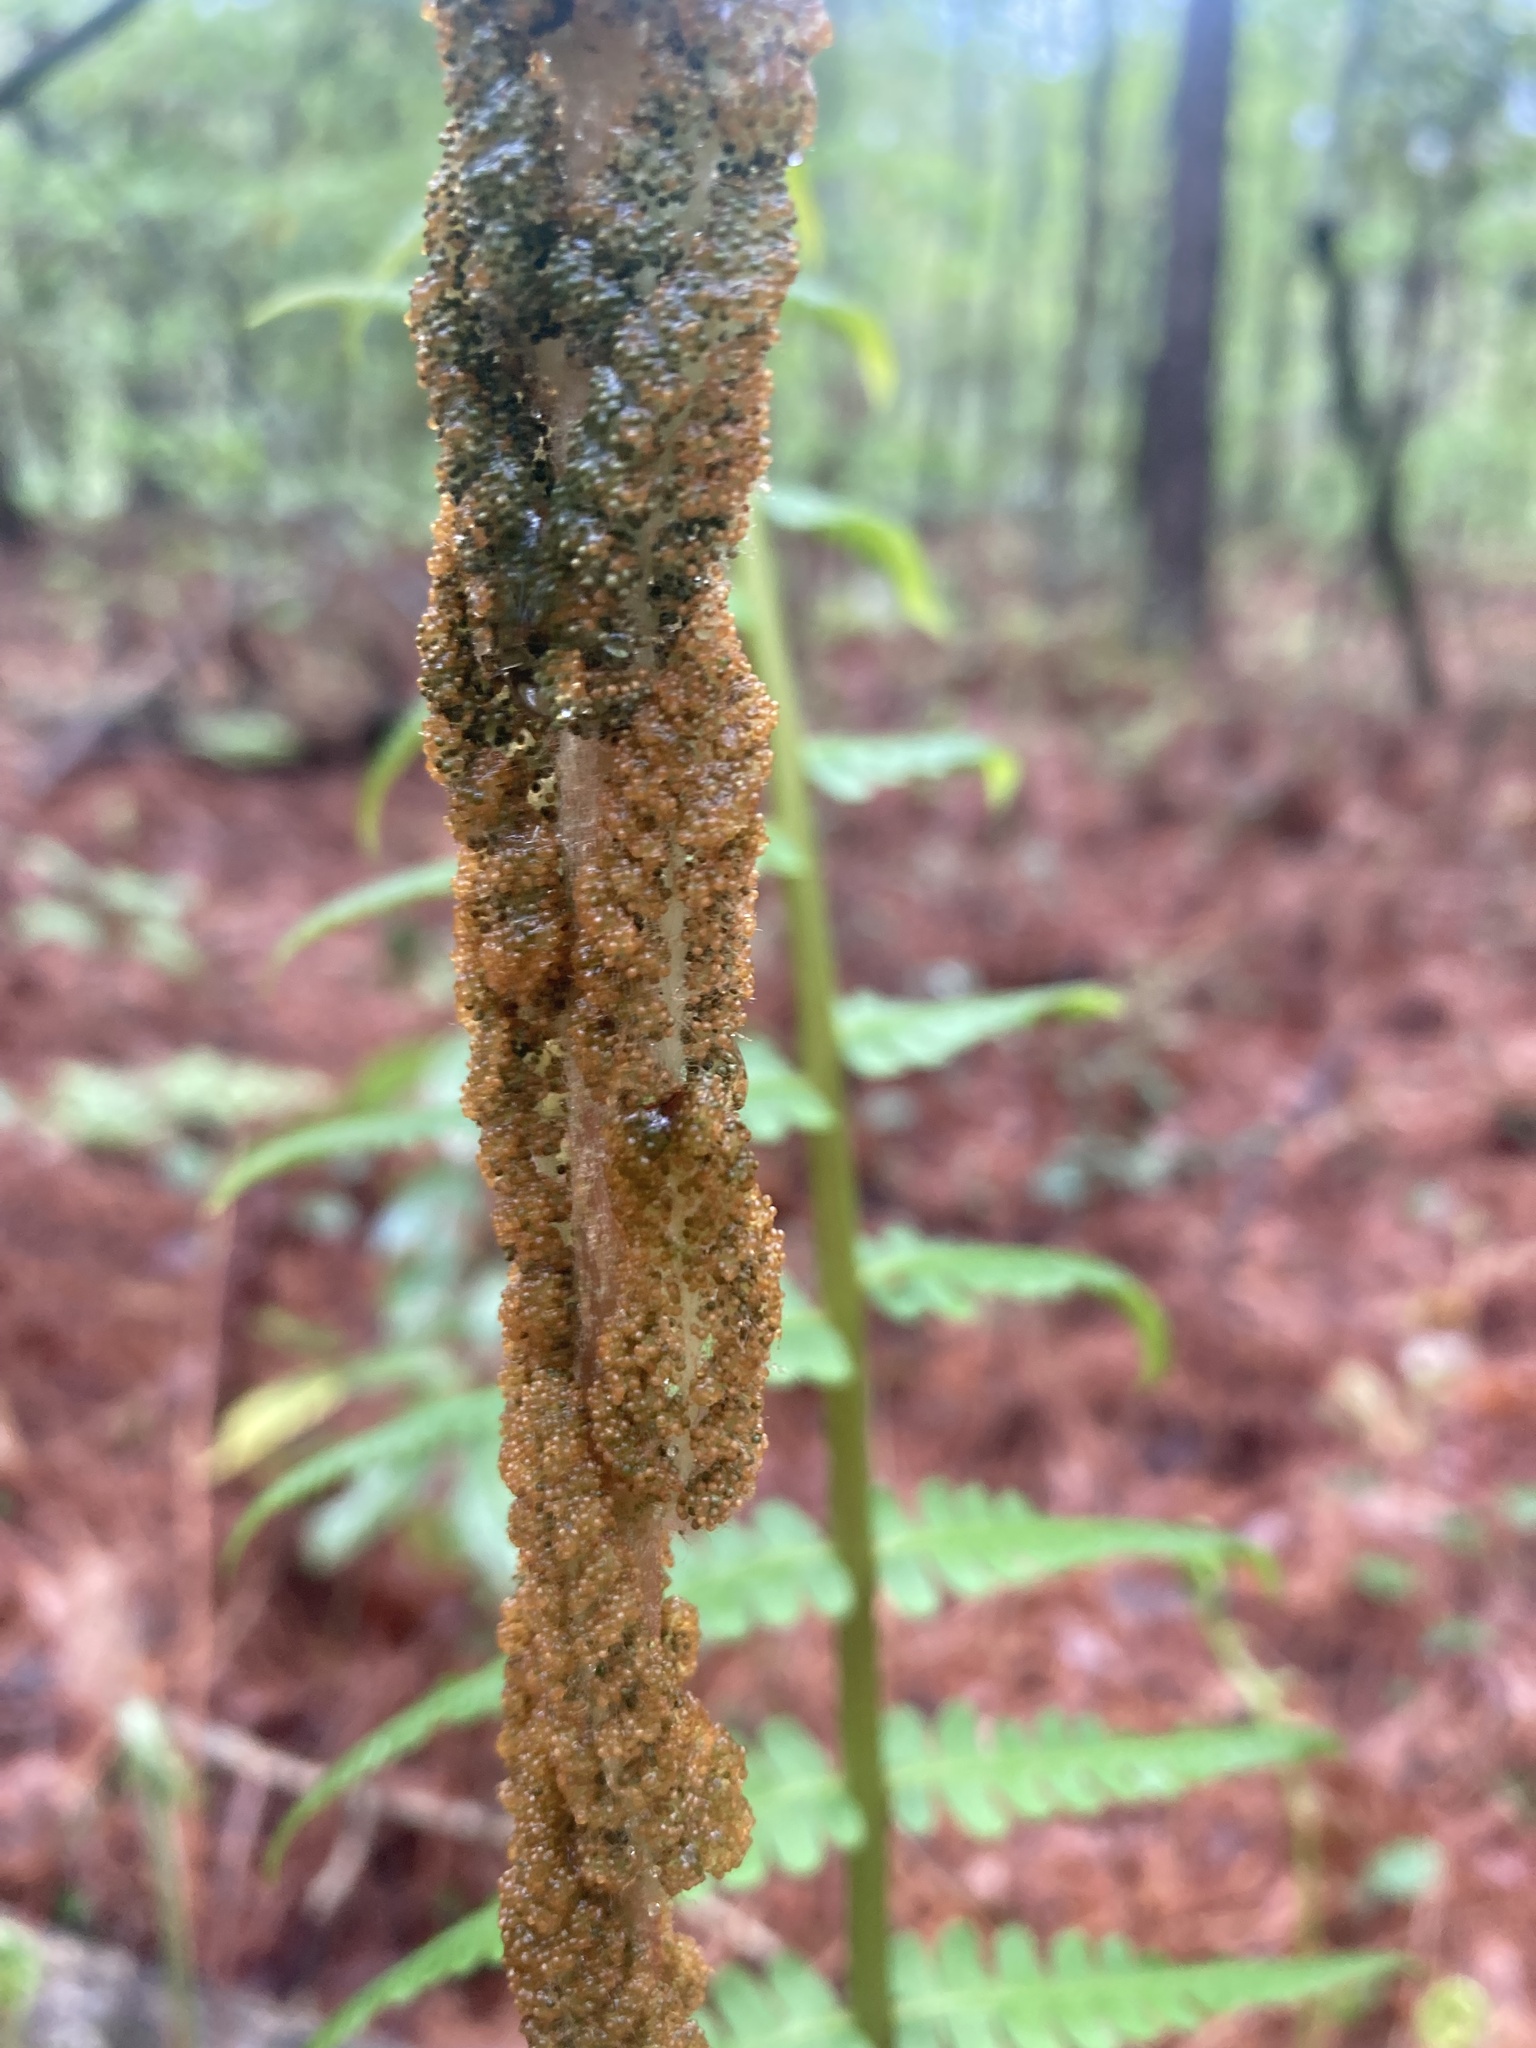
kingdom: Plantae
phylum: Tracheophyta
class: Polypodiopsida
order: Osmundales
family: Osmundaceae
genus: Osmundastrum
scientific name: Osmundastrum cinnamomeum
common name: Cinnamon fern
